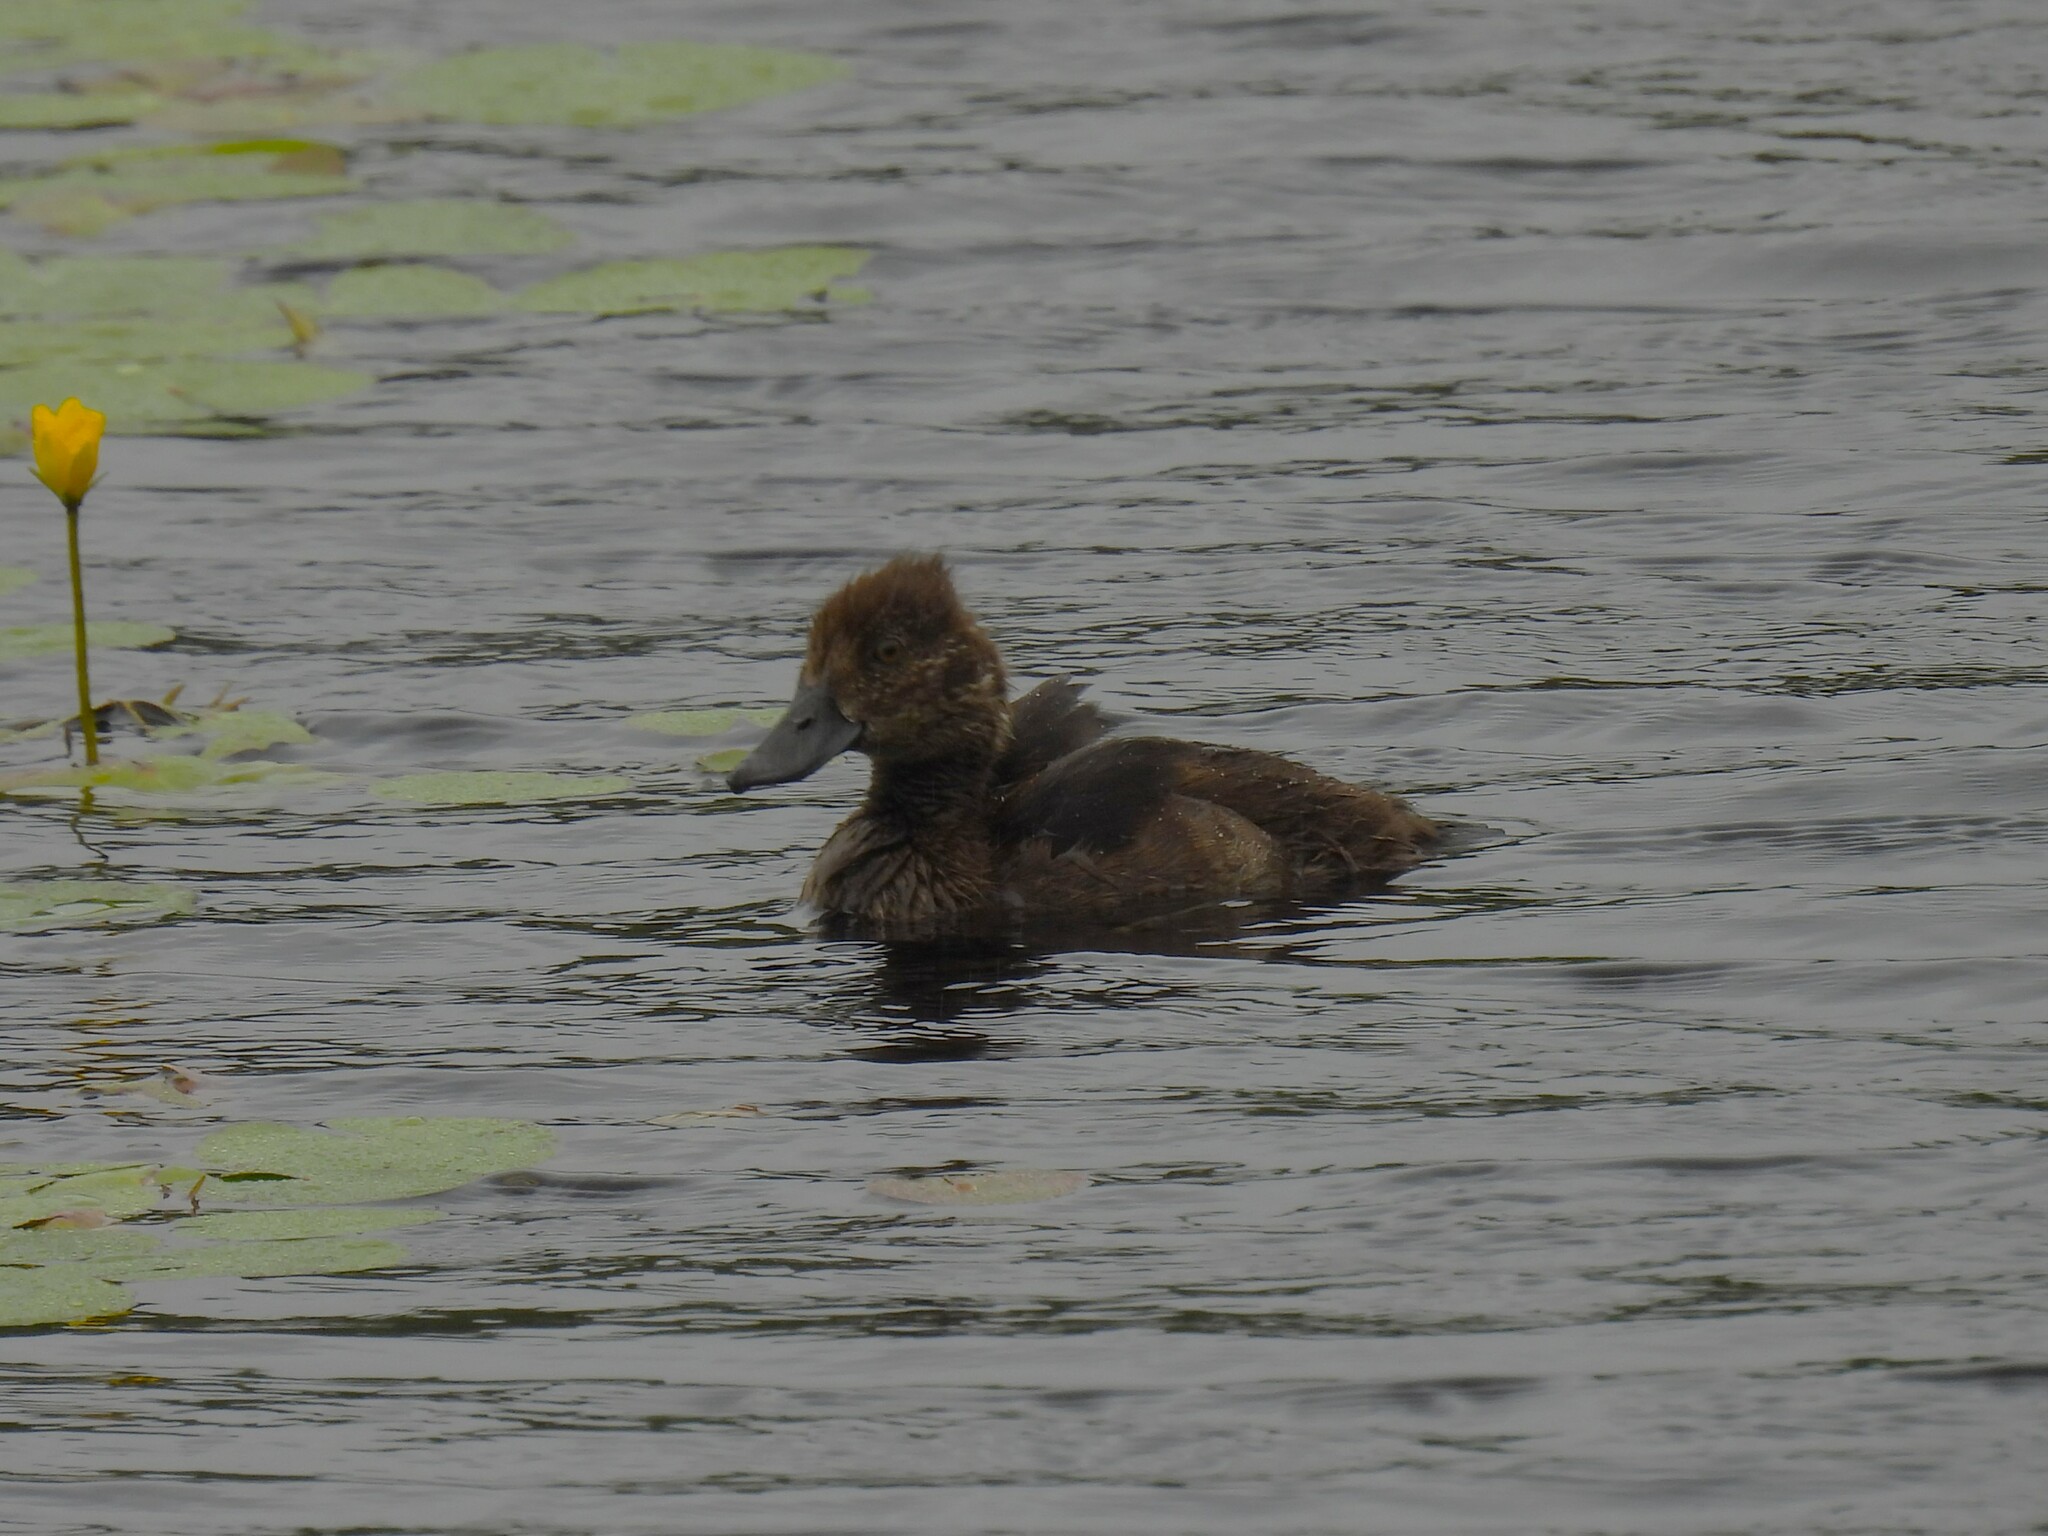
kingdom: Animalia
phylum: Chordata
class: Aves
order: Anseriformes
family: Anatidae
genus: Aythya
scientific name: Aythya fuligula
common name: Tufted duck
